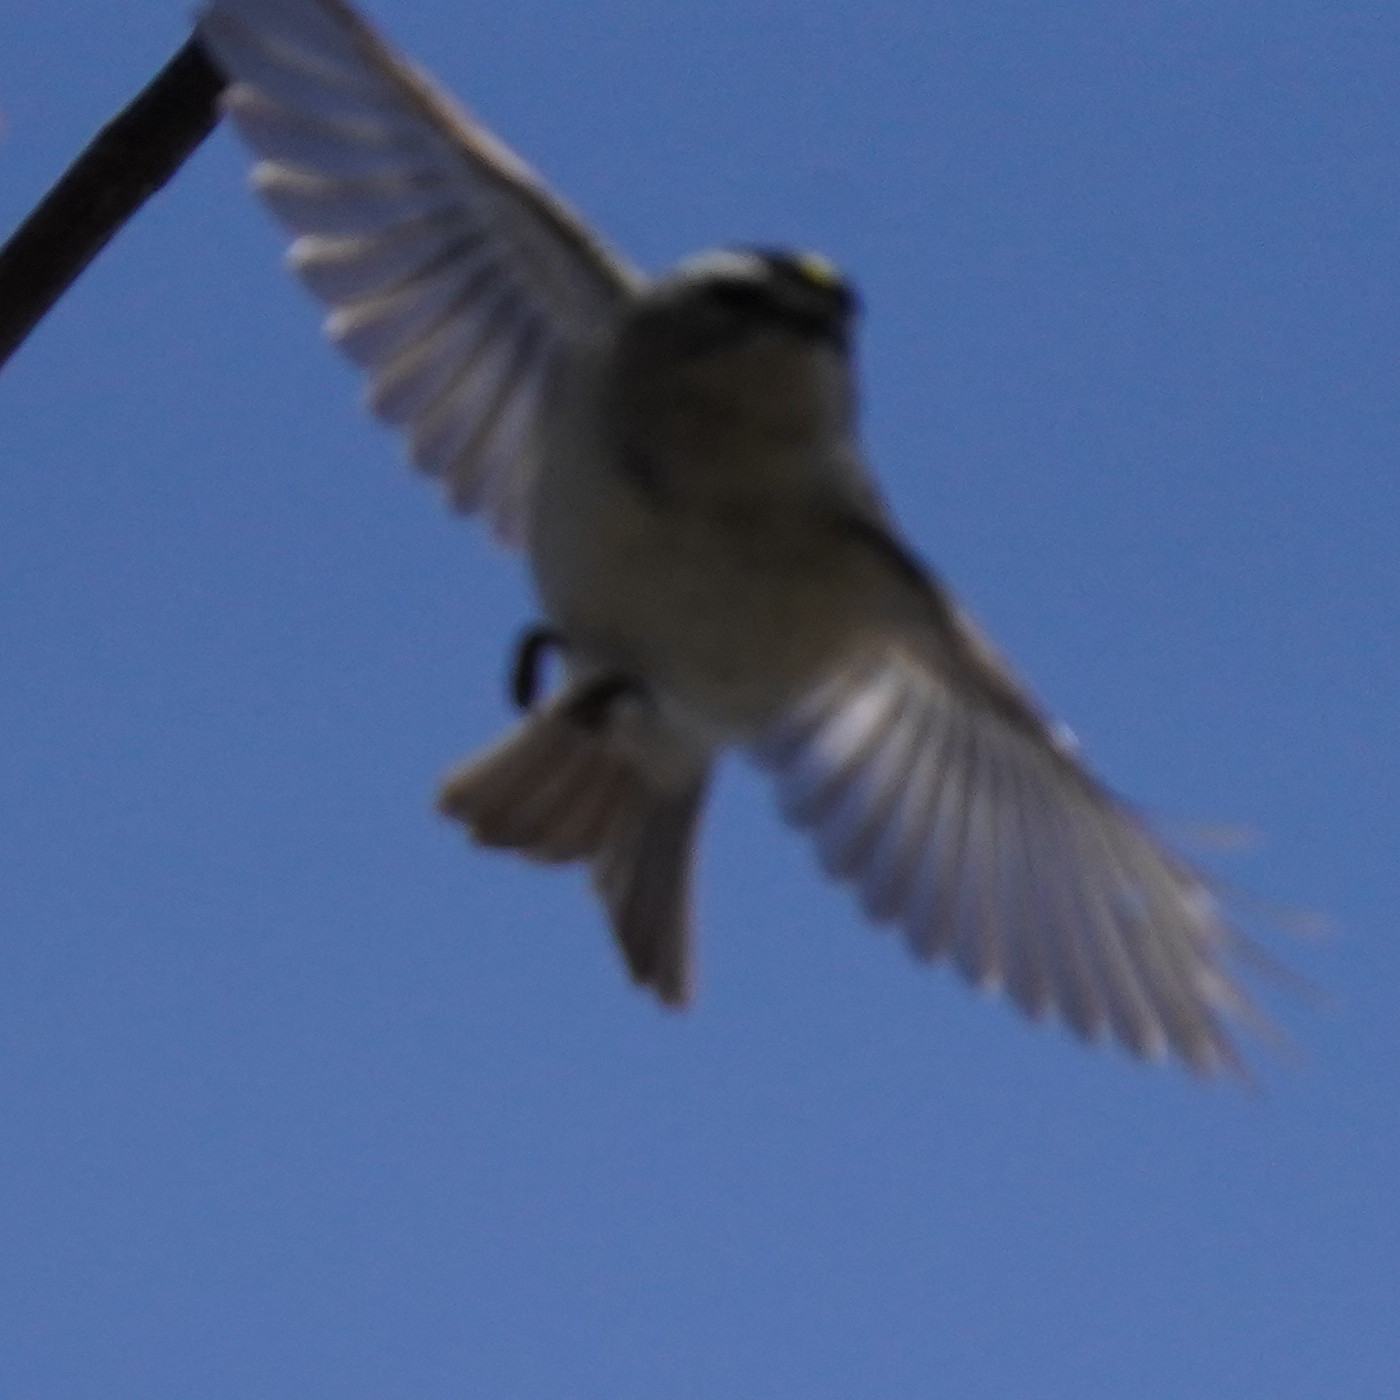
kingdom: Animalia
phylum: Chordata
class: Aves
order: Passeriformes
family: Regulidae
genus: Regulus
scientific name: Regulus satrapa
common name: Golden-crowned kinglet
